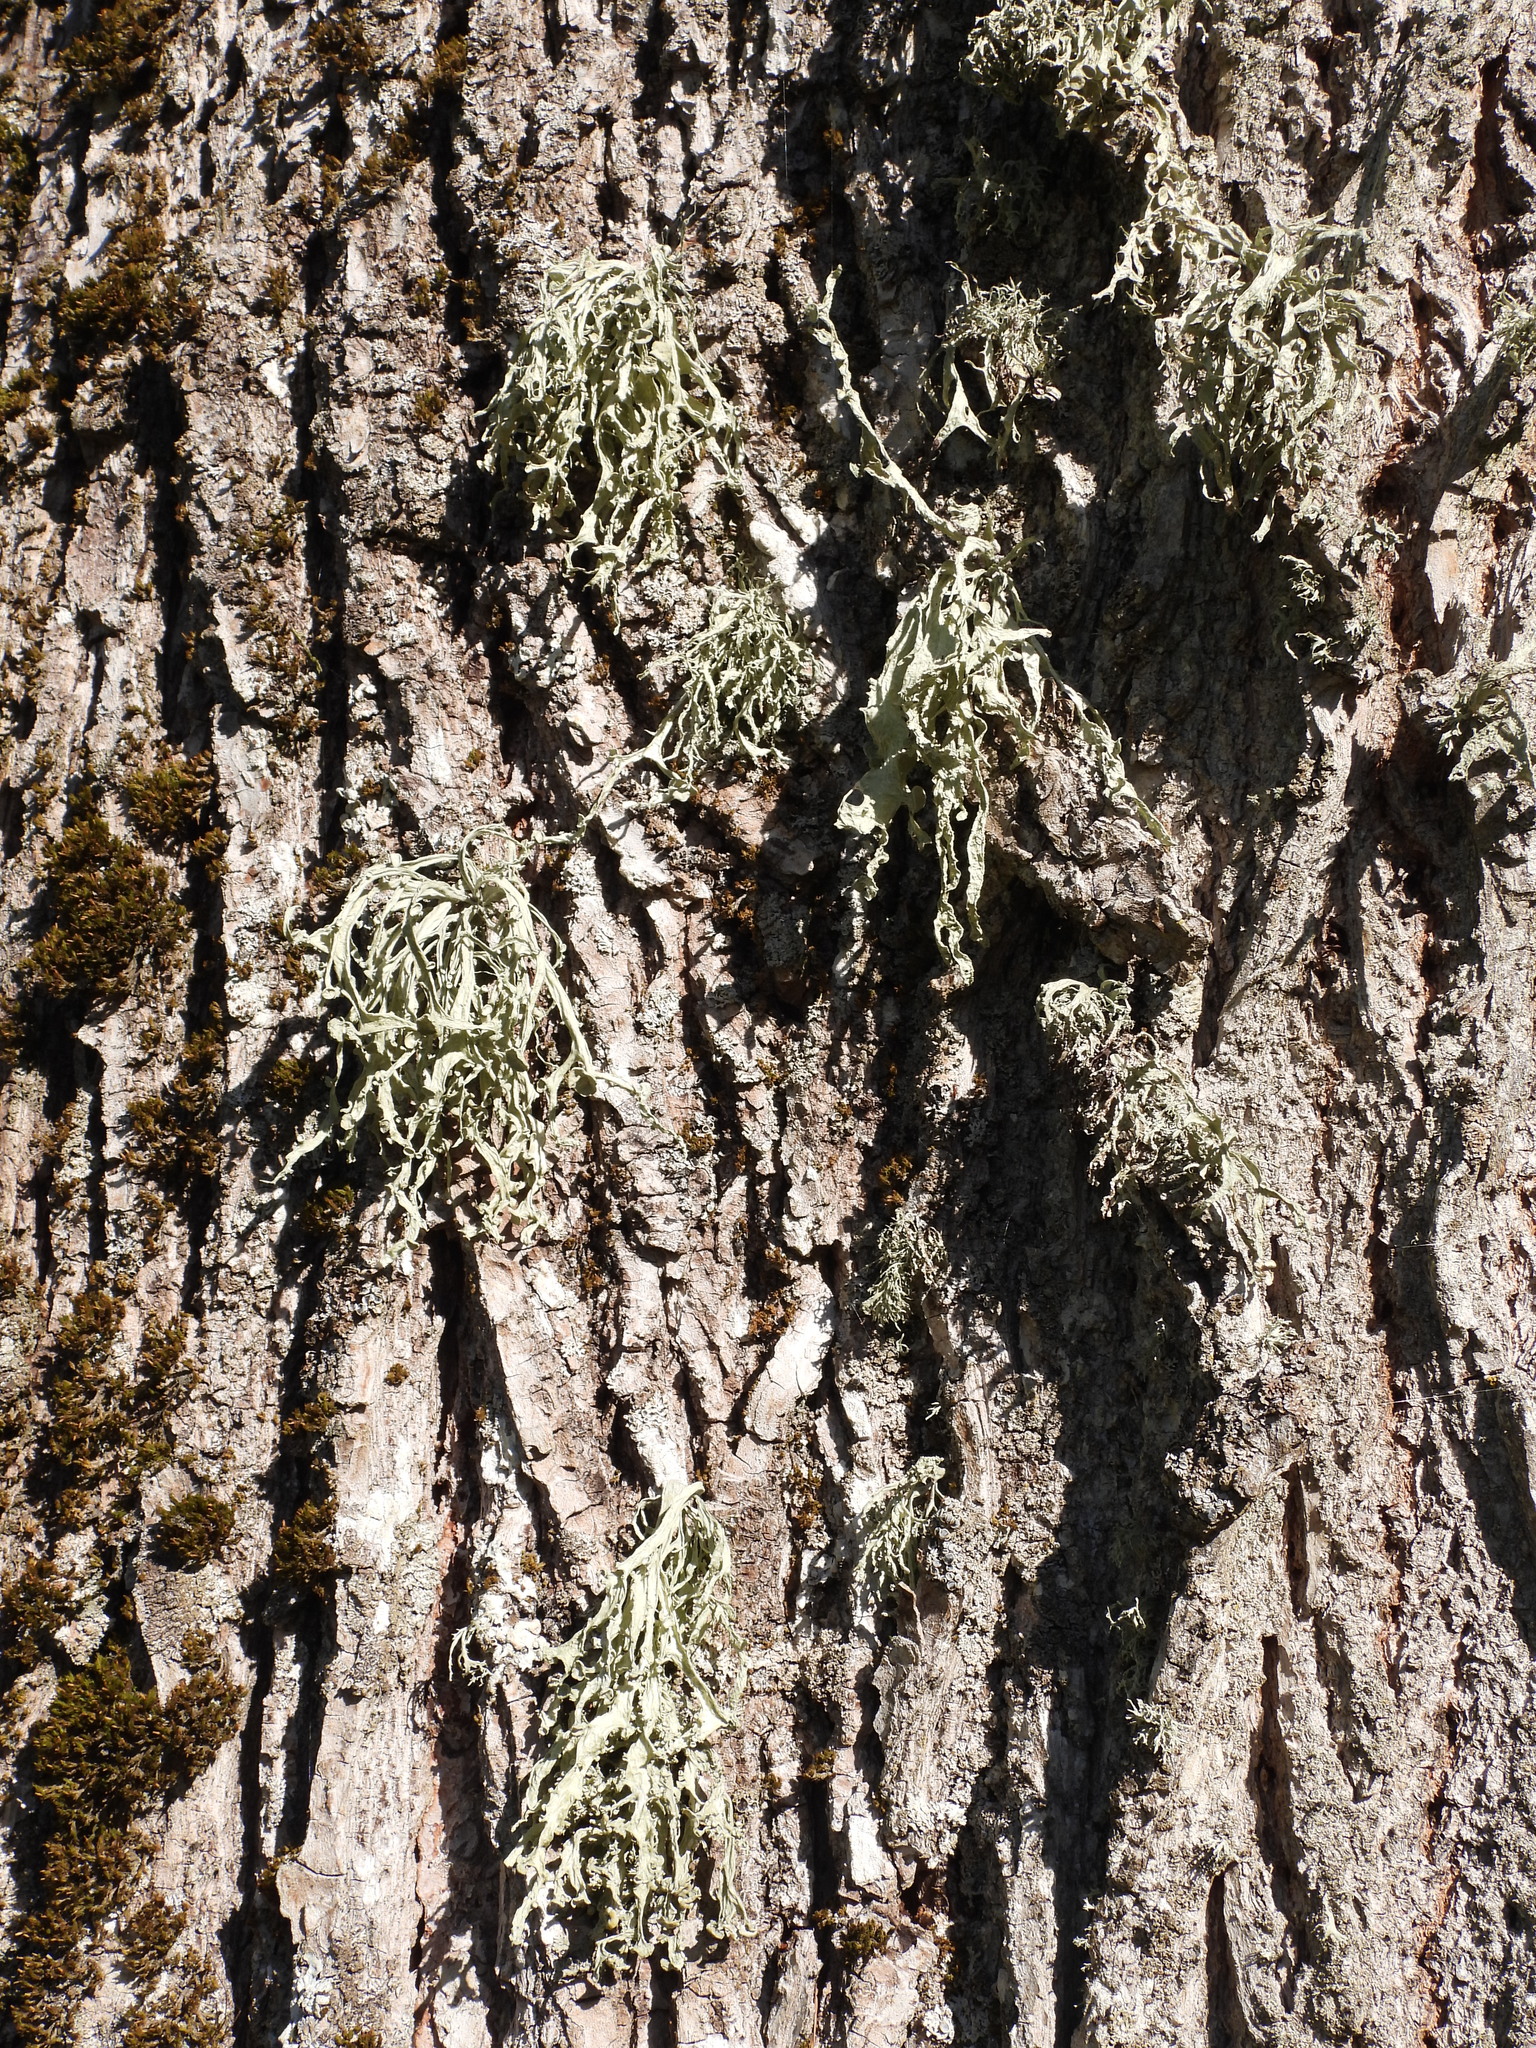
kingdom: Fungi
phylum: Ascomycota
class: Lecanoromycetes
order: Lecanorales
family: Ramalinaceae
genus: Ramalina
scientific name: Ramalina fraxinea
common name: Cartilage lichen
